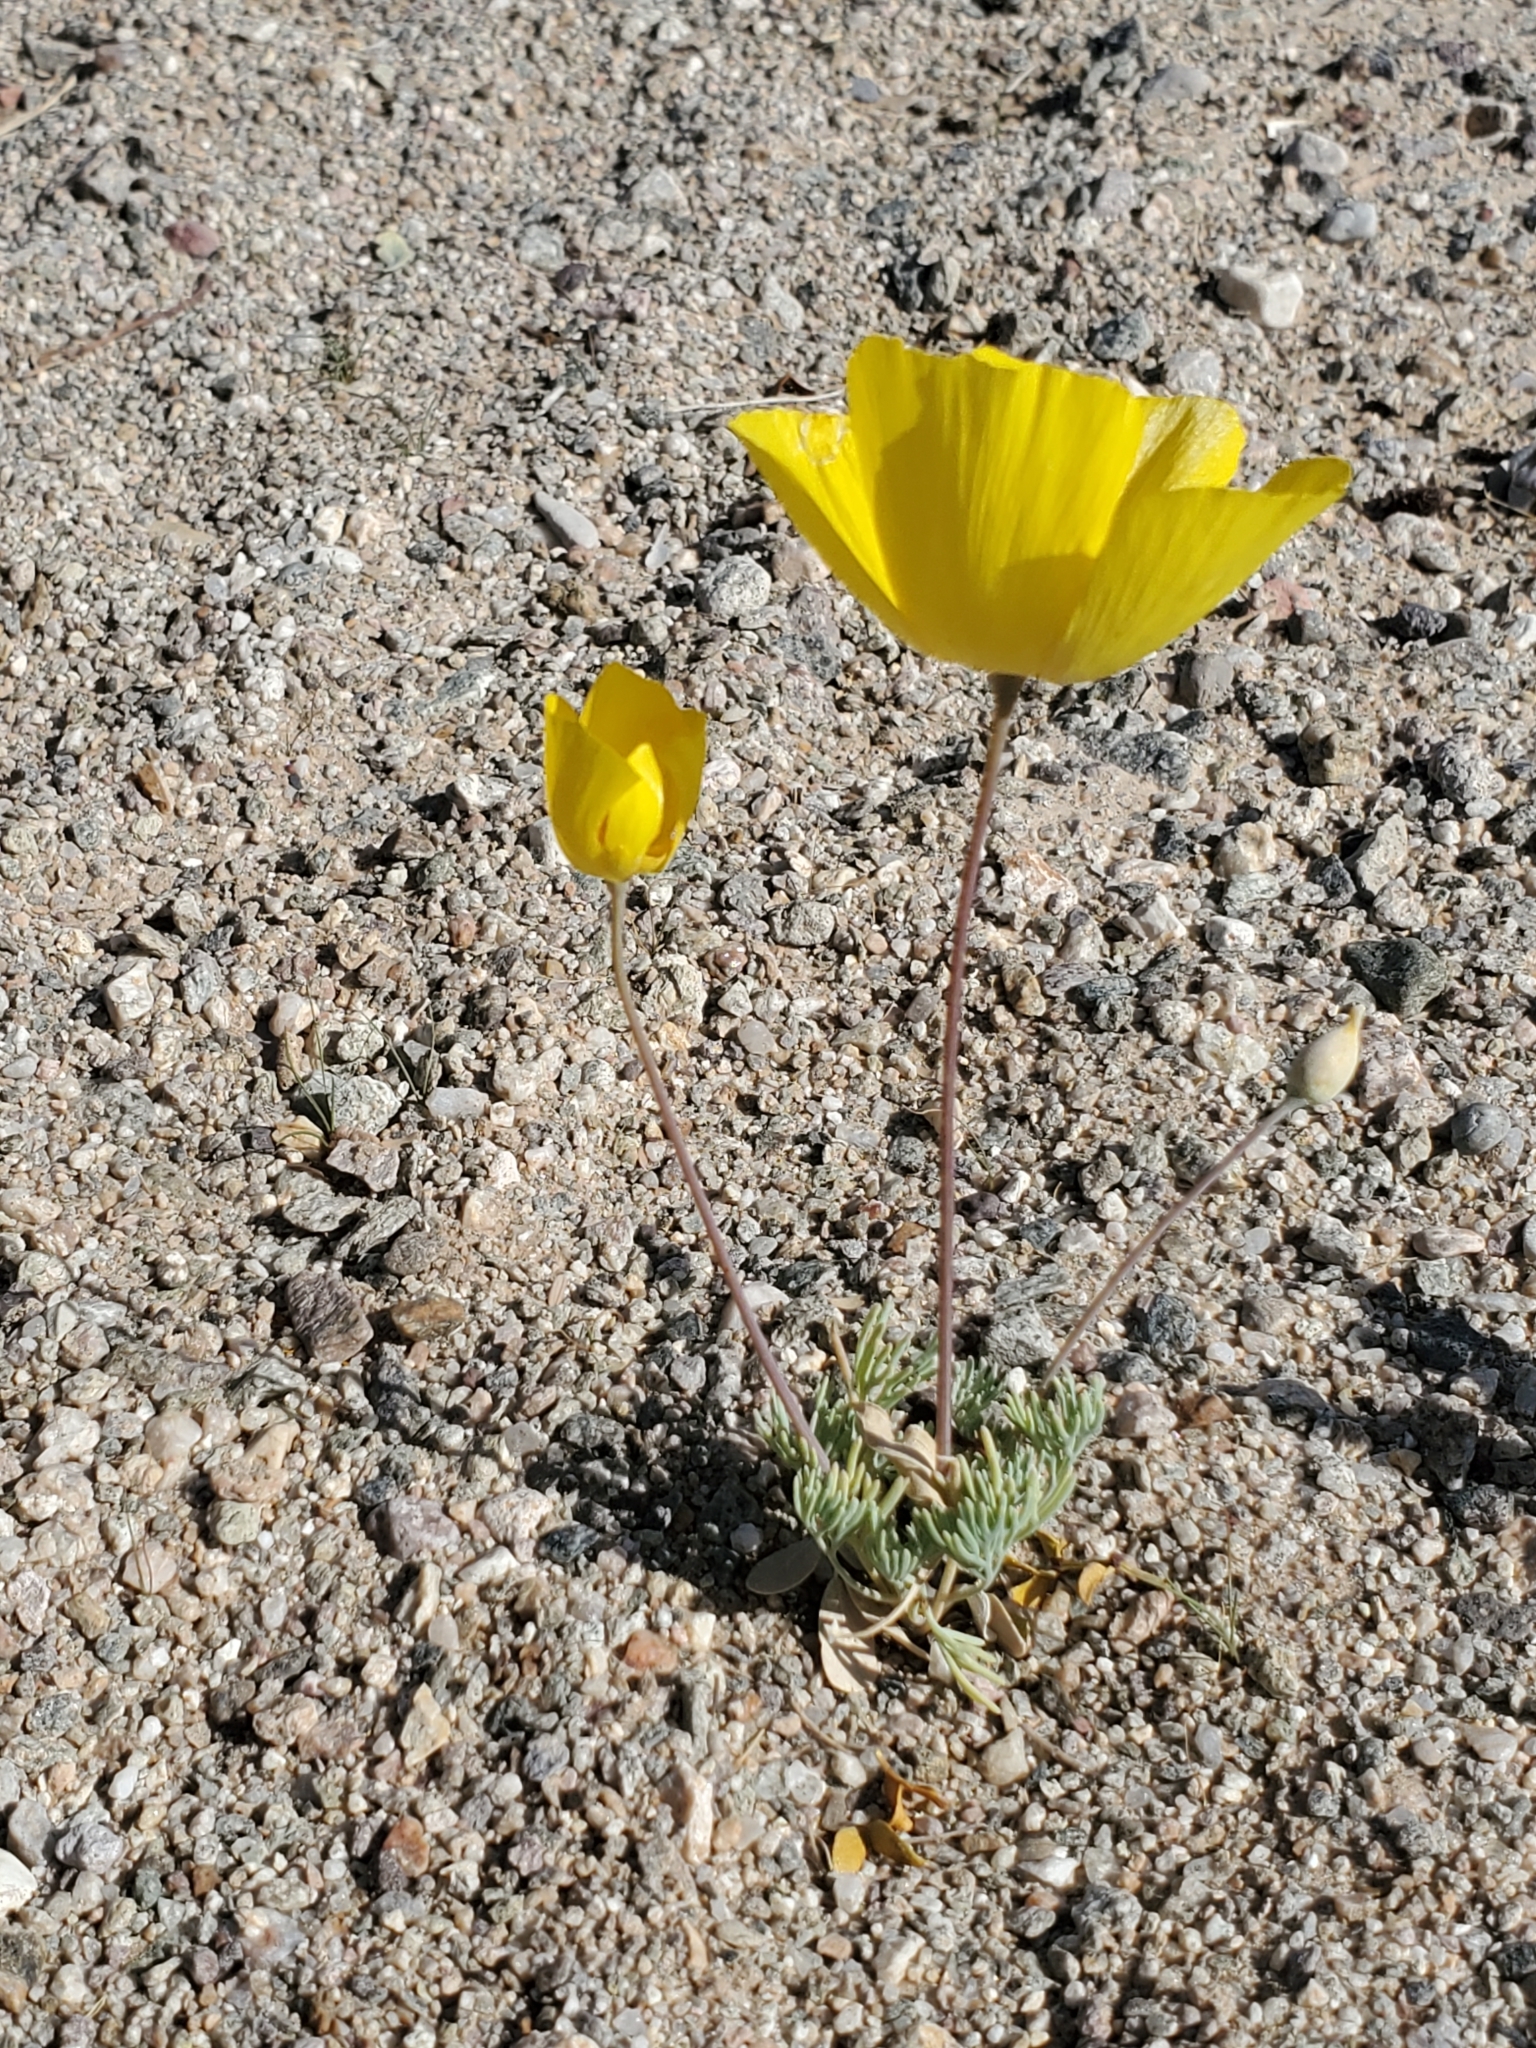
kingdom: Plantae
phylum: Tracheophyta
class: Magnoliopsida
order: Ranunculales
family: Papaveraceae
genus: Eschscholzia
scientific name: Eschscholzia glyptosperma
